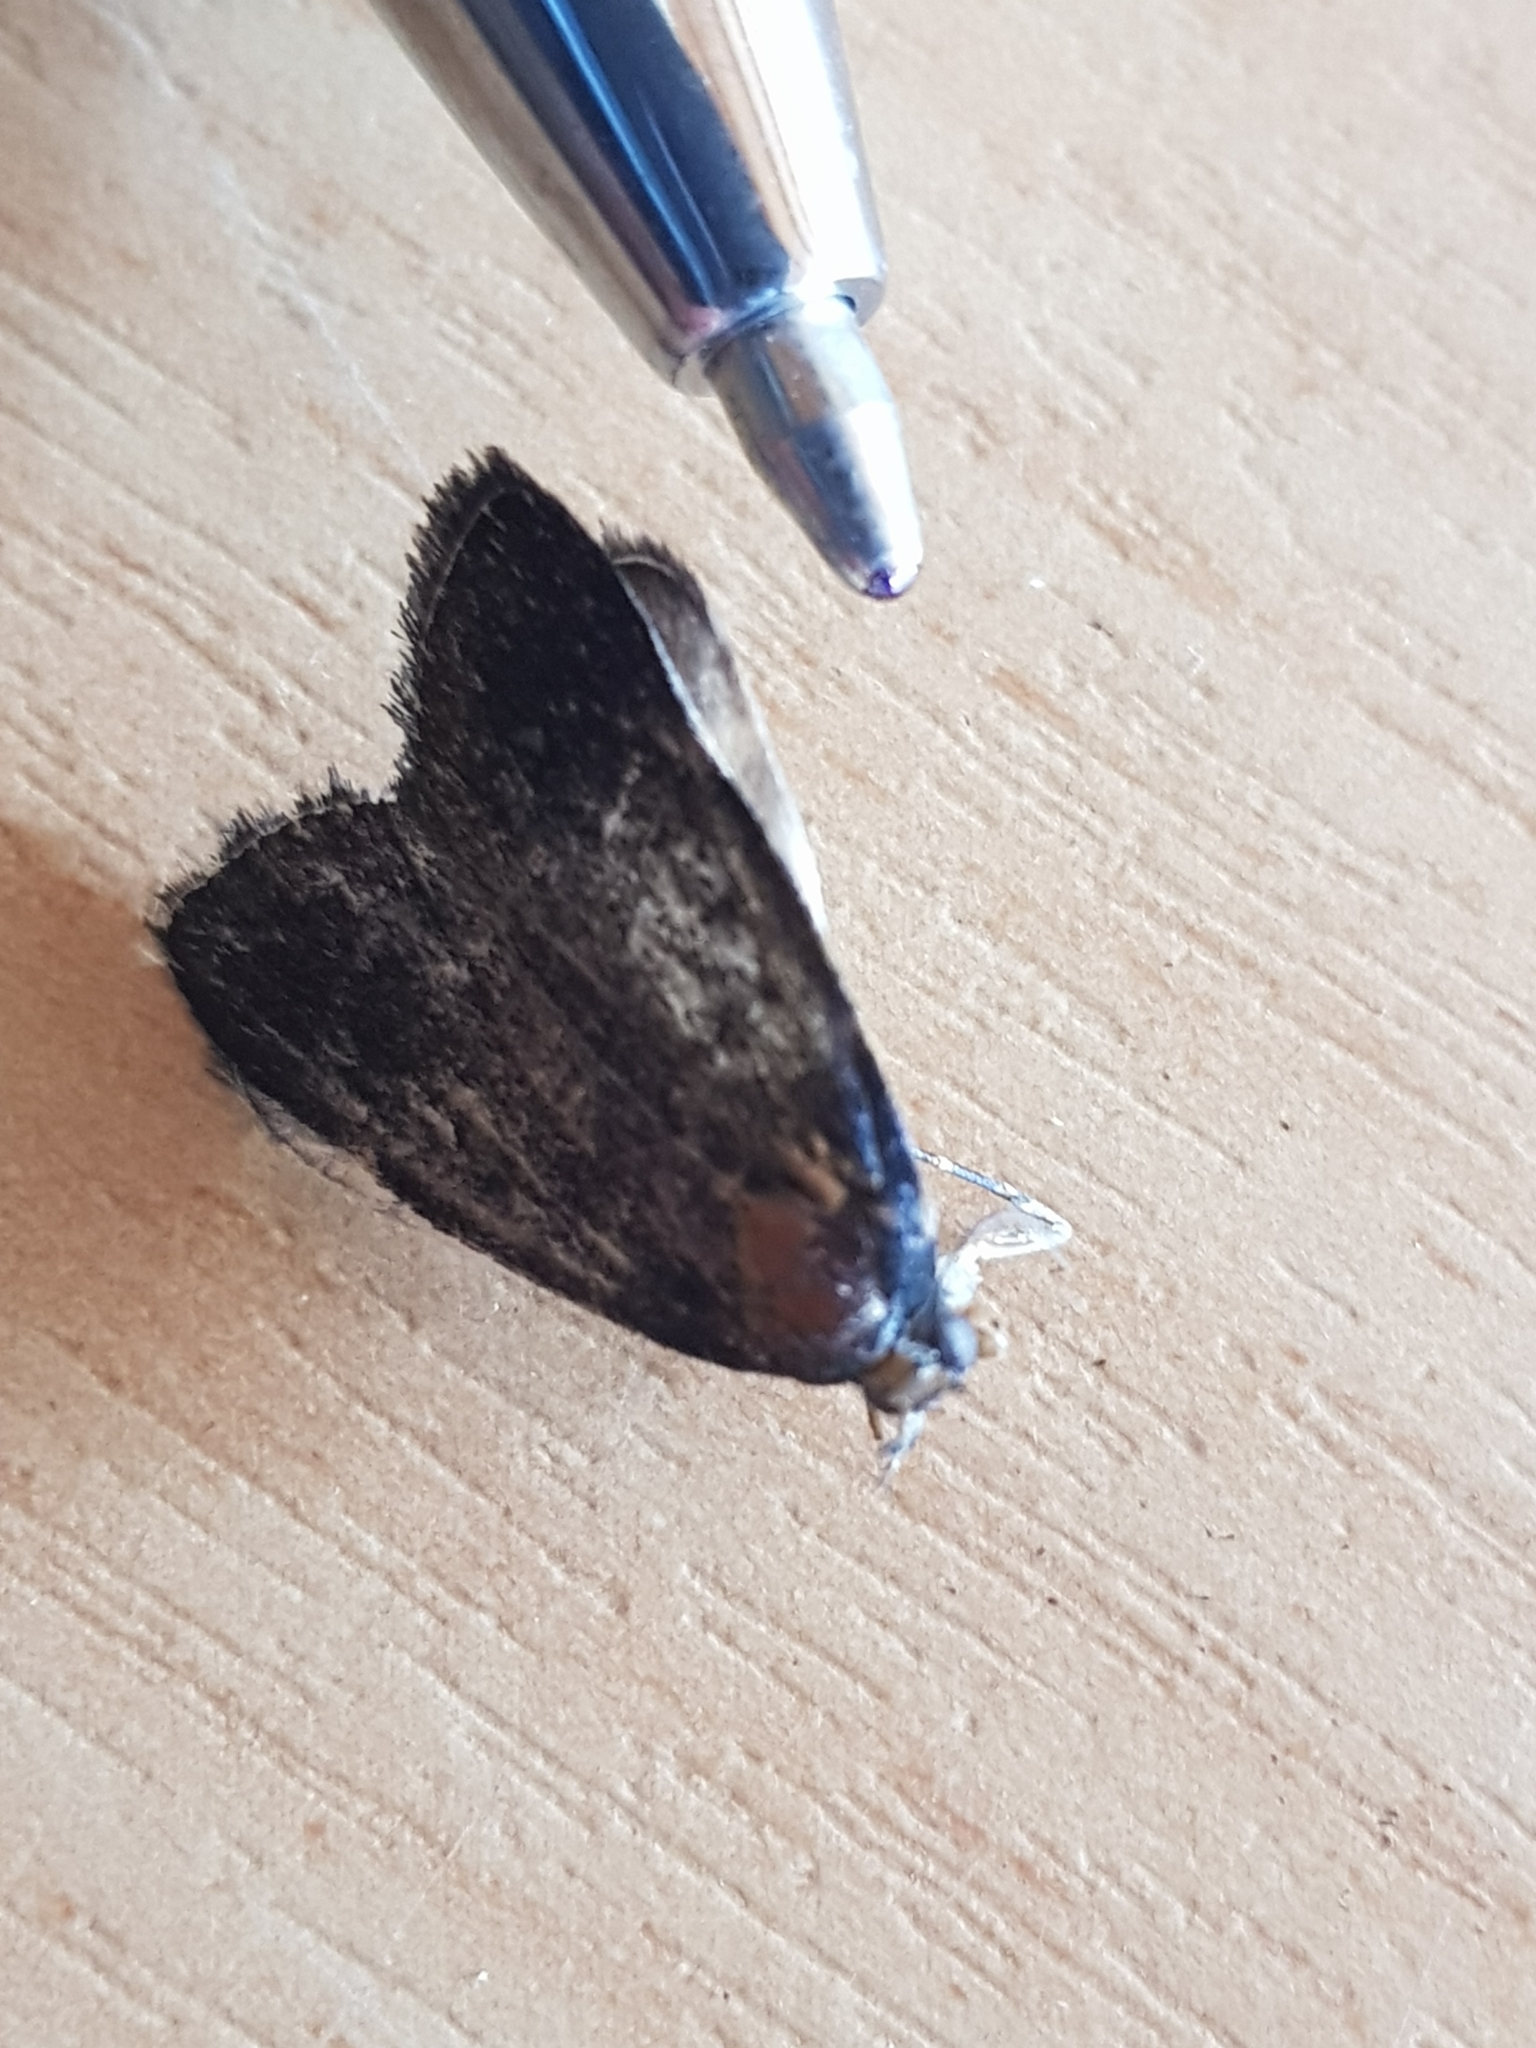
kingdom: Animalia
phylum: Arthropoda
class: Insecta
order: Lepidoptera
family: Pyralidae
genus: Stericta
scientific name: Stericta carbonalis
